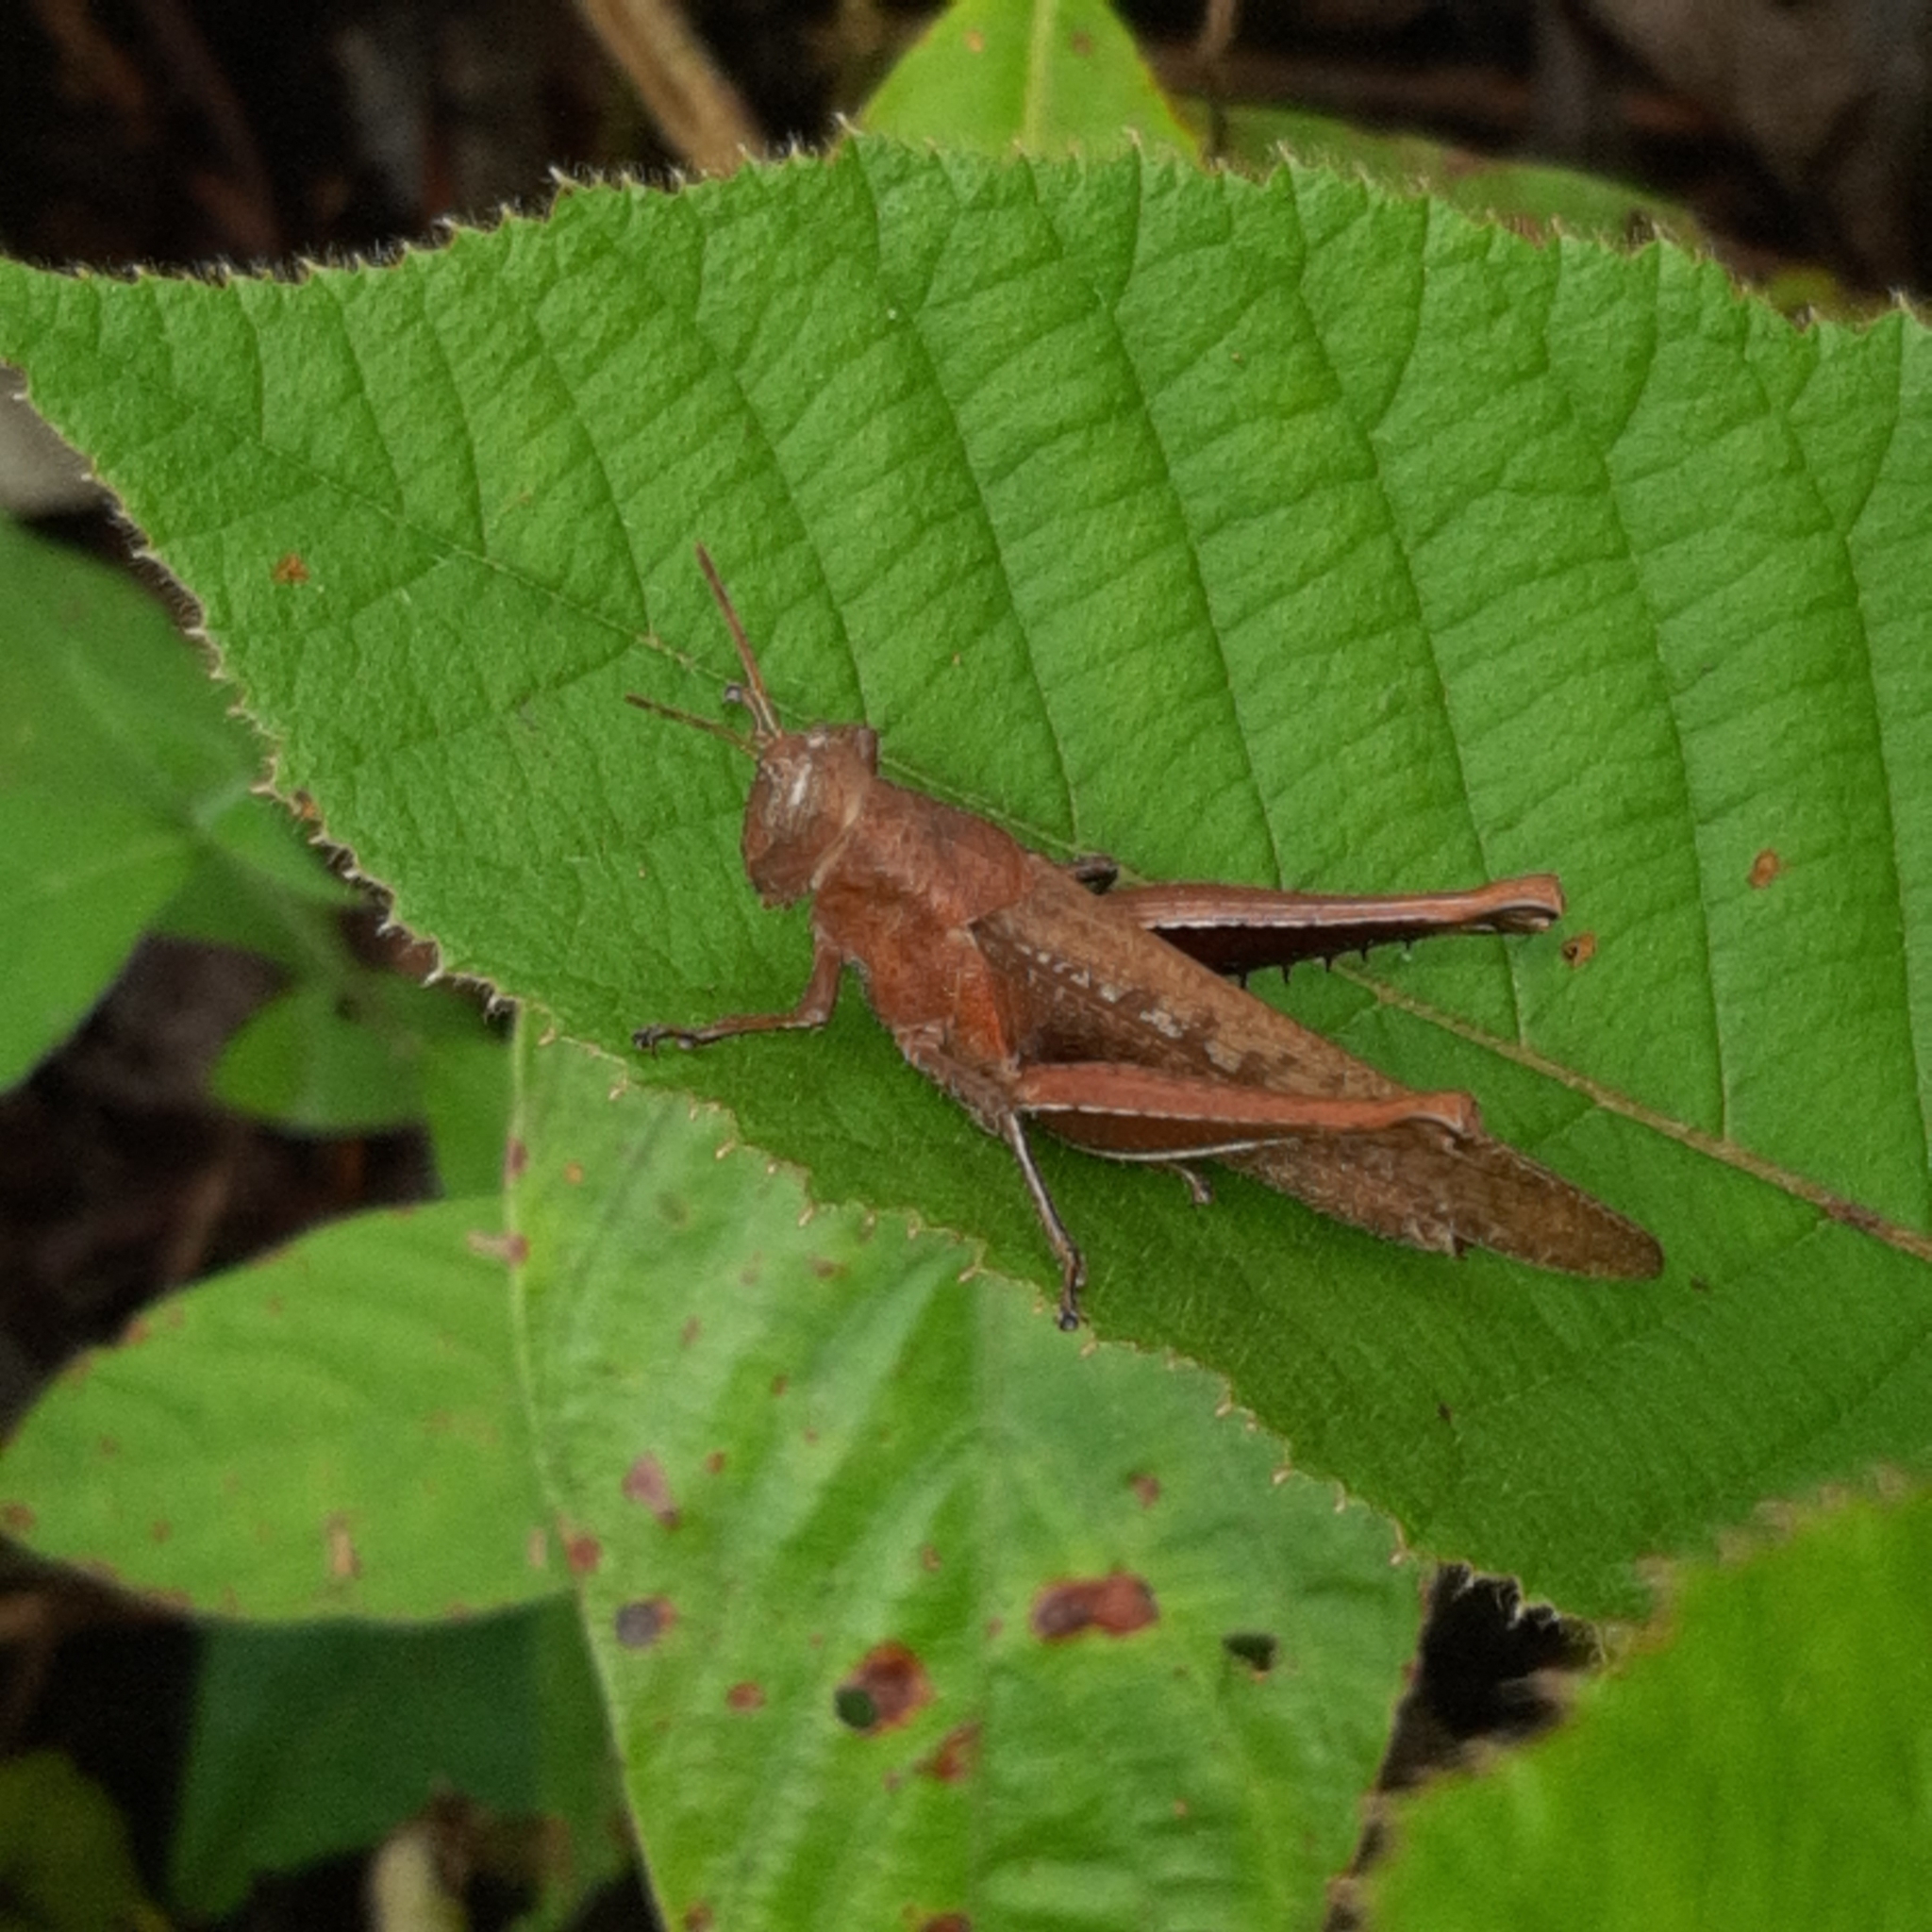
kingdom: Animalia
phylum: Arthropoda
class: Insecta
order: Orthoptera
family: Acrididae
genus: Abracris
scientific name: Abracris flavolineata
